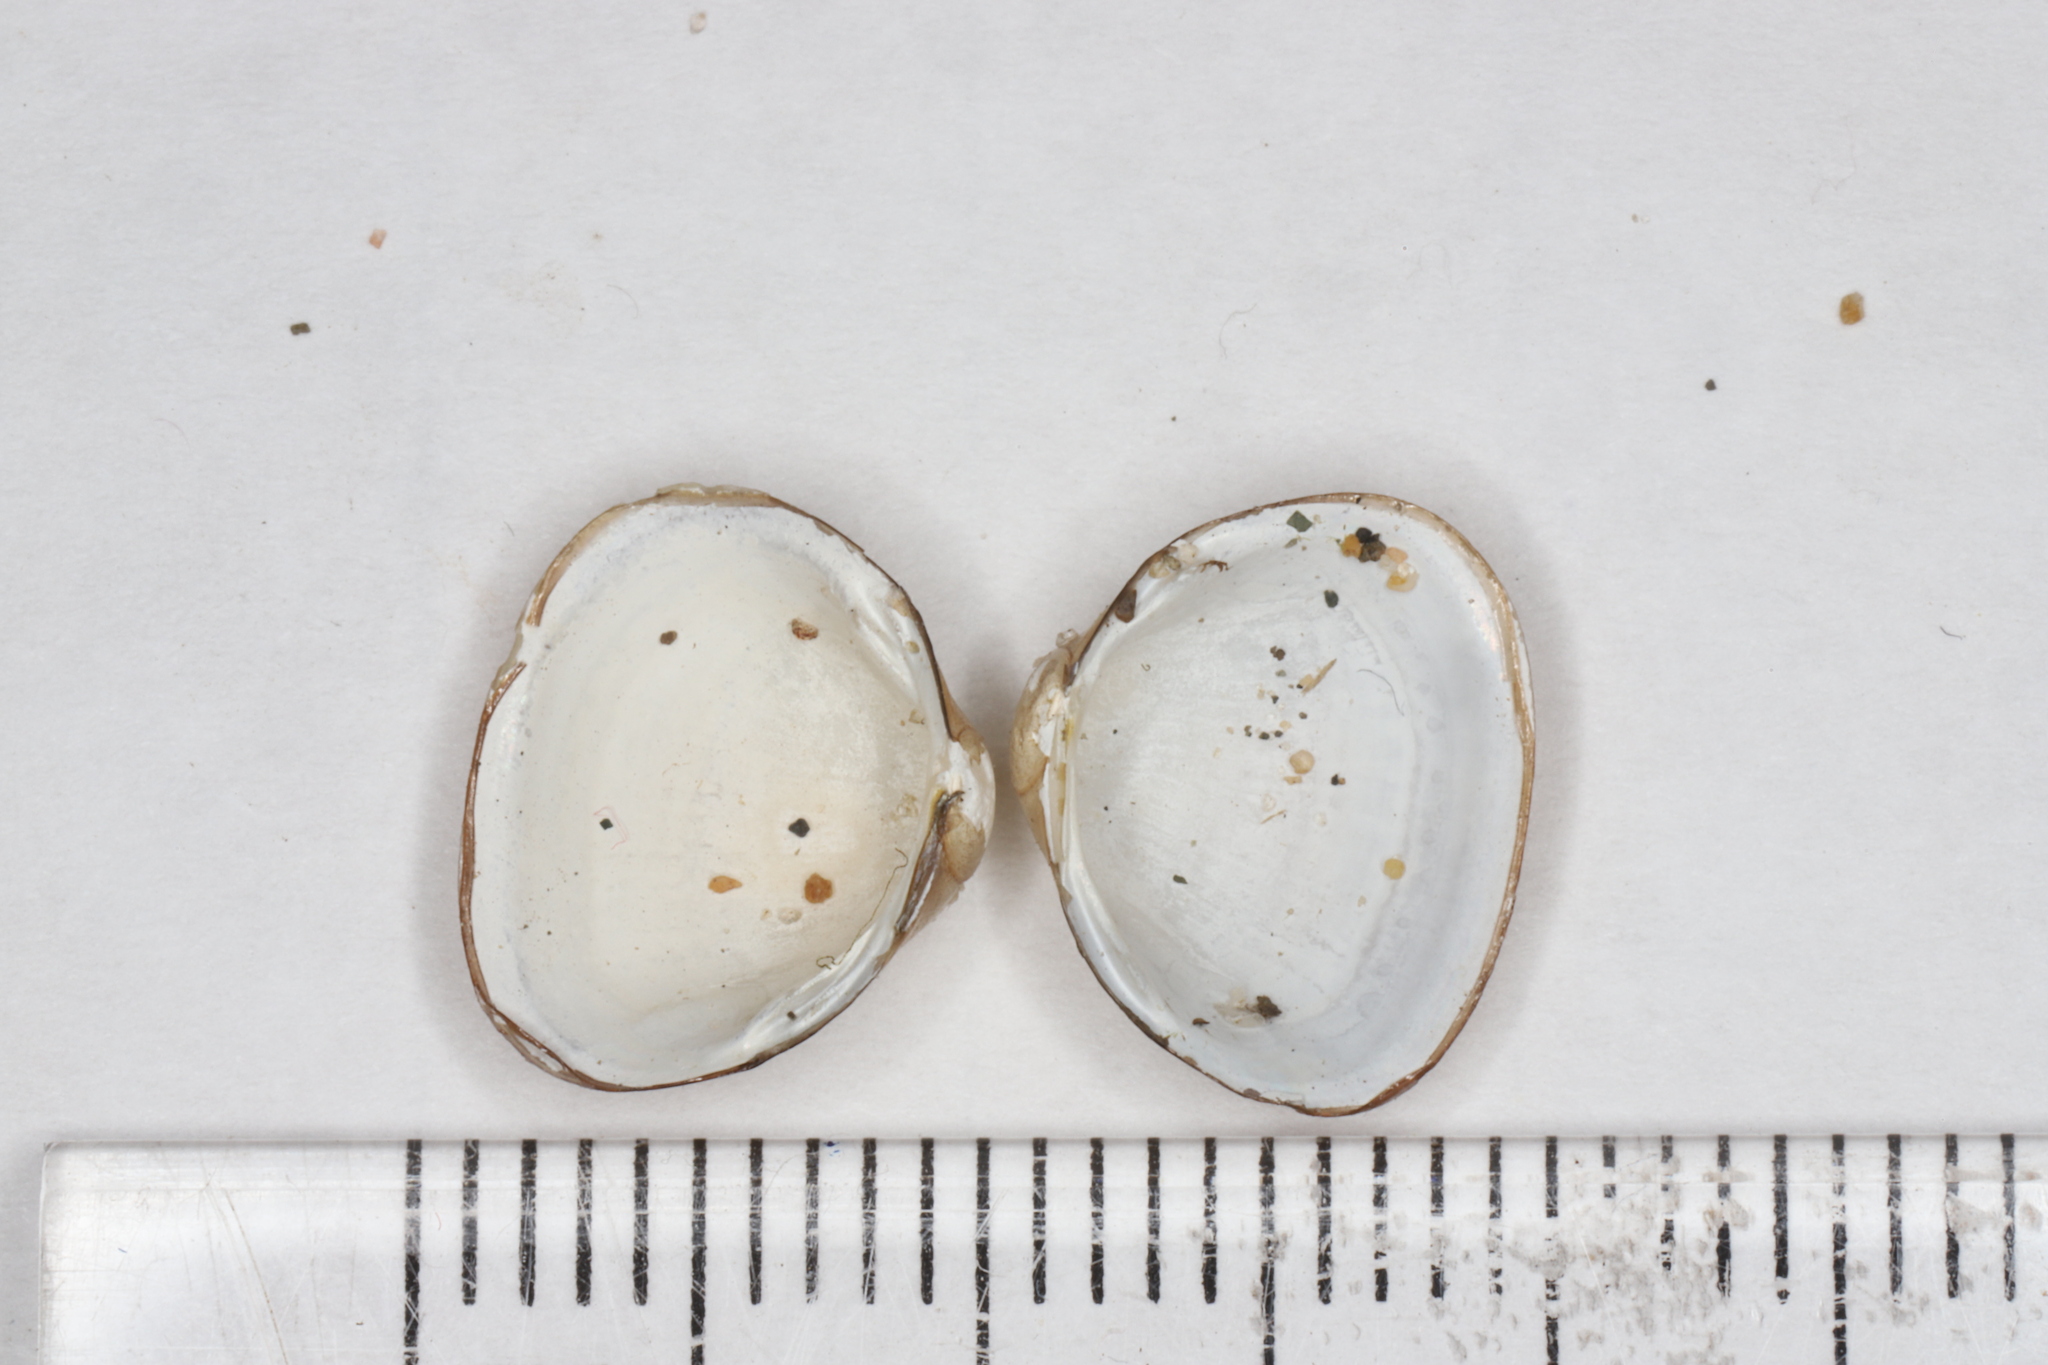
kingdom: Animalia
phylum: Mollusca
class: Bivalvia
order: Sphaeriida
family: Sphaeriidae
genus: Sphaerium
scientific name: Sphaerium striatinum
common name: Striated fingernailclam
